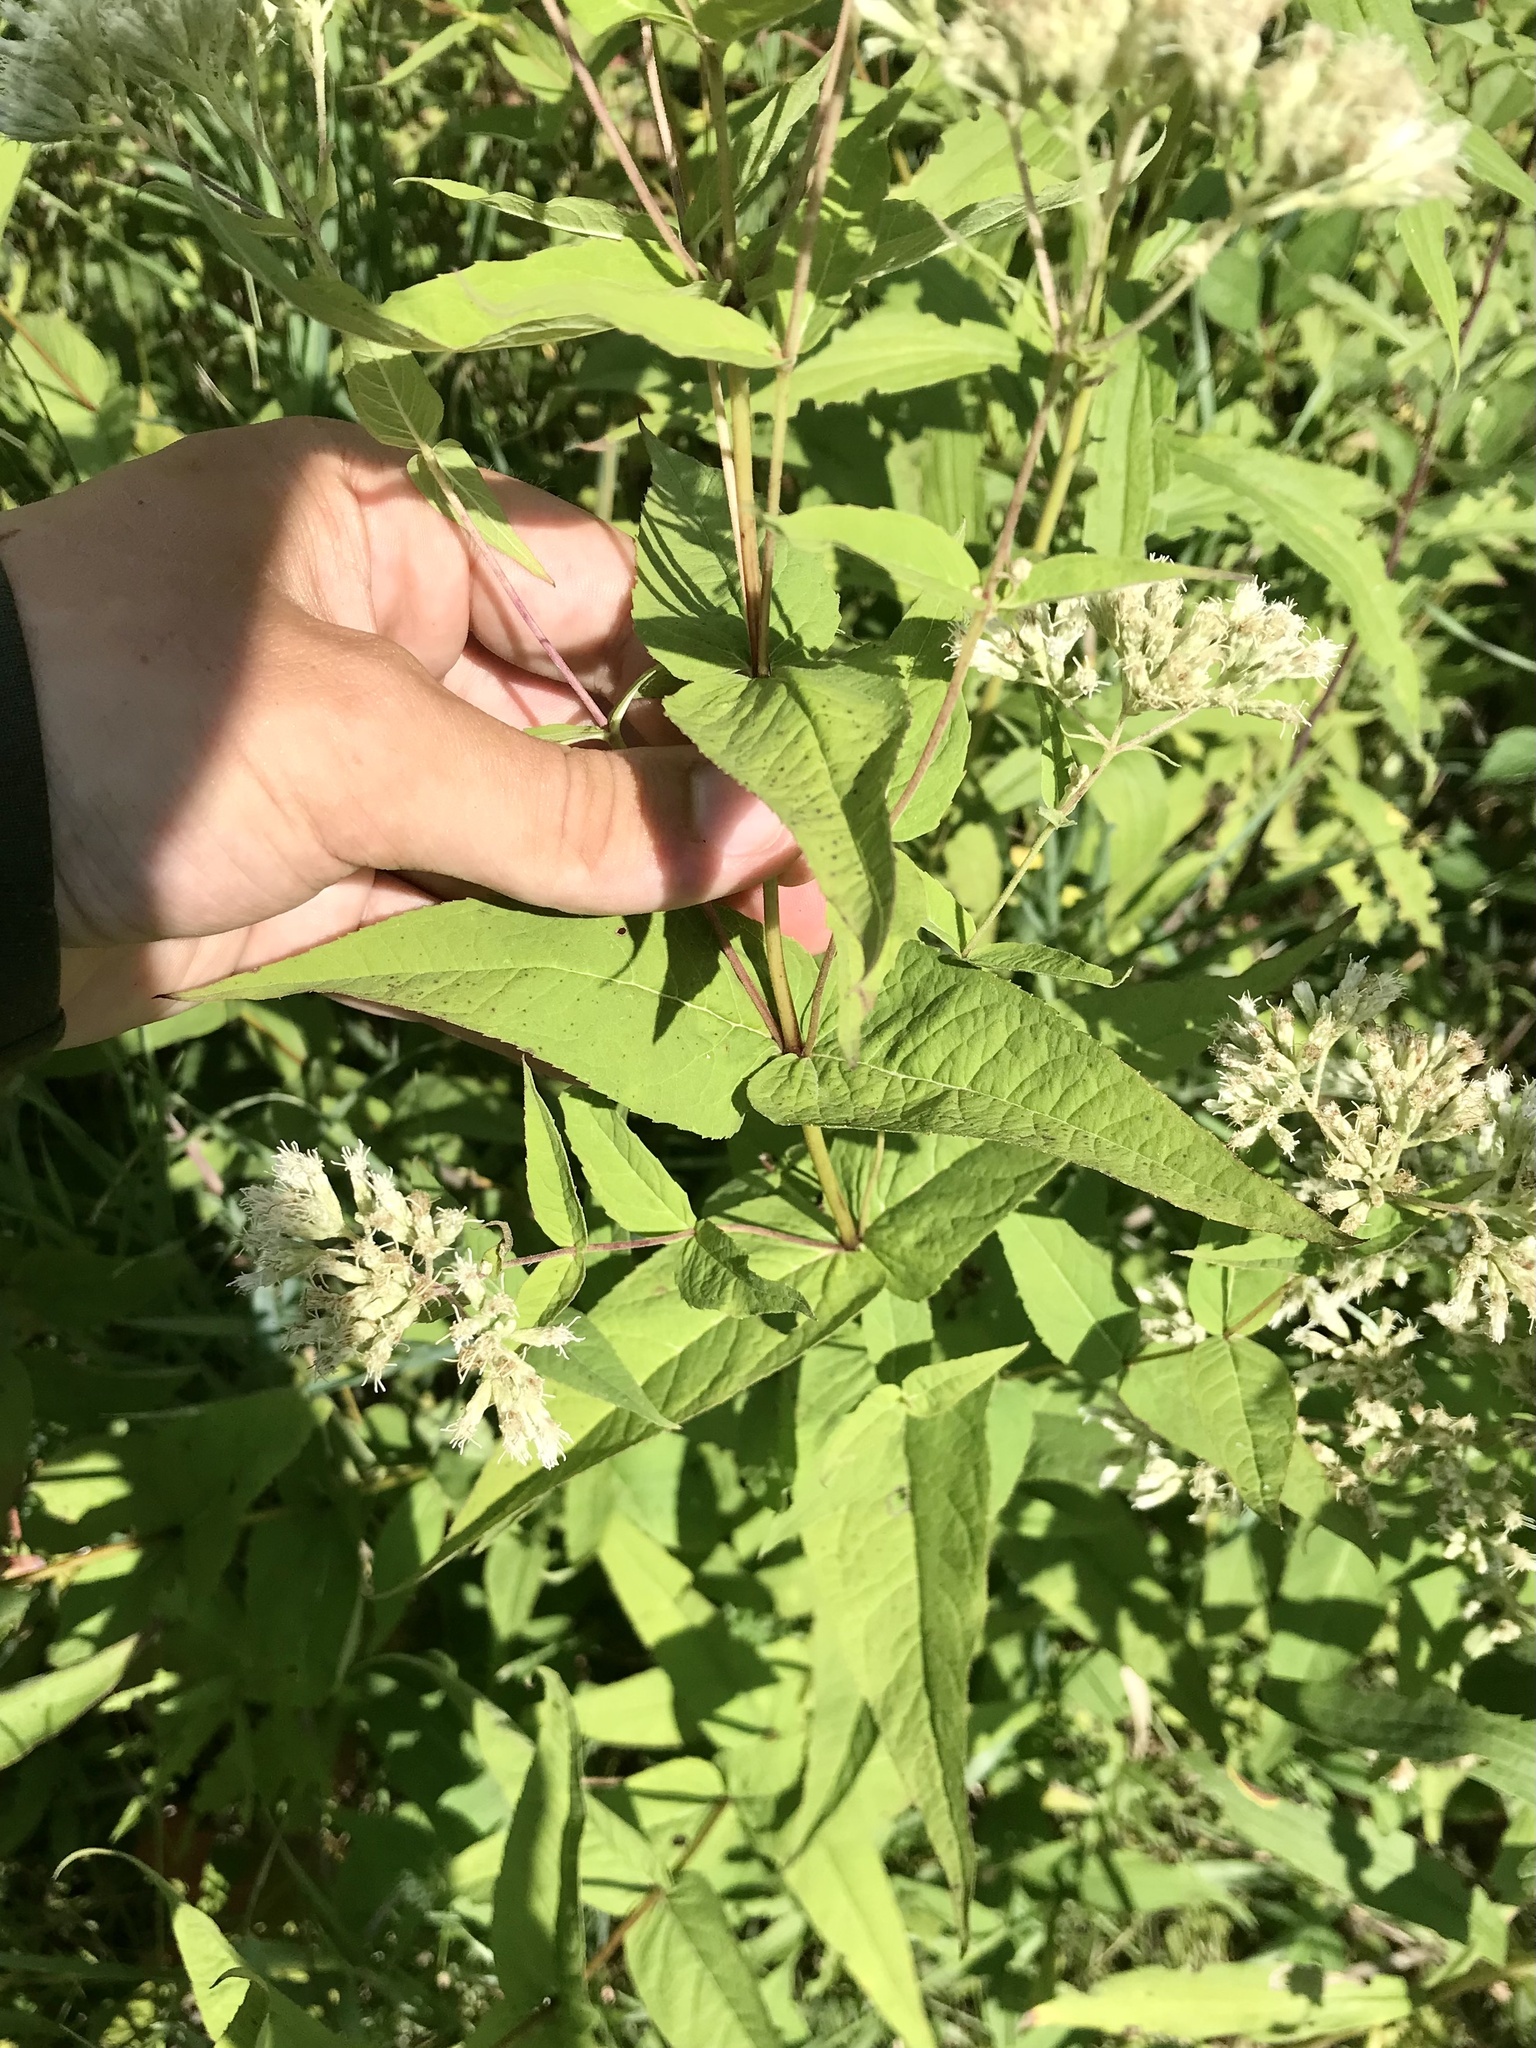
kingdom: Plantae
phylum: Tracheophyta
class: Magnoliopsida
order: Asterales
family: Asteraceae
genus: Eupatorium
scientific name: Eupatorium sessilifolium
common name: Upland boneset
